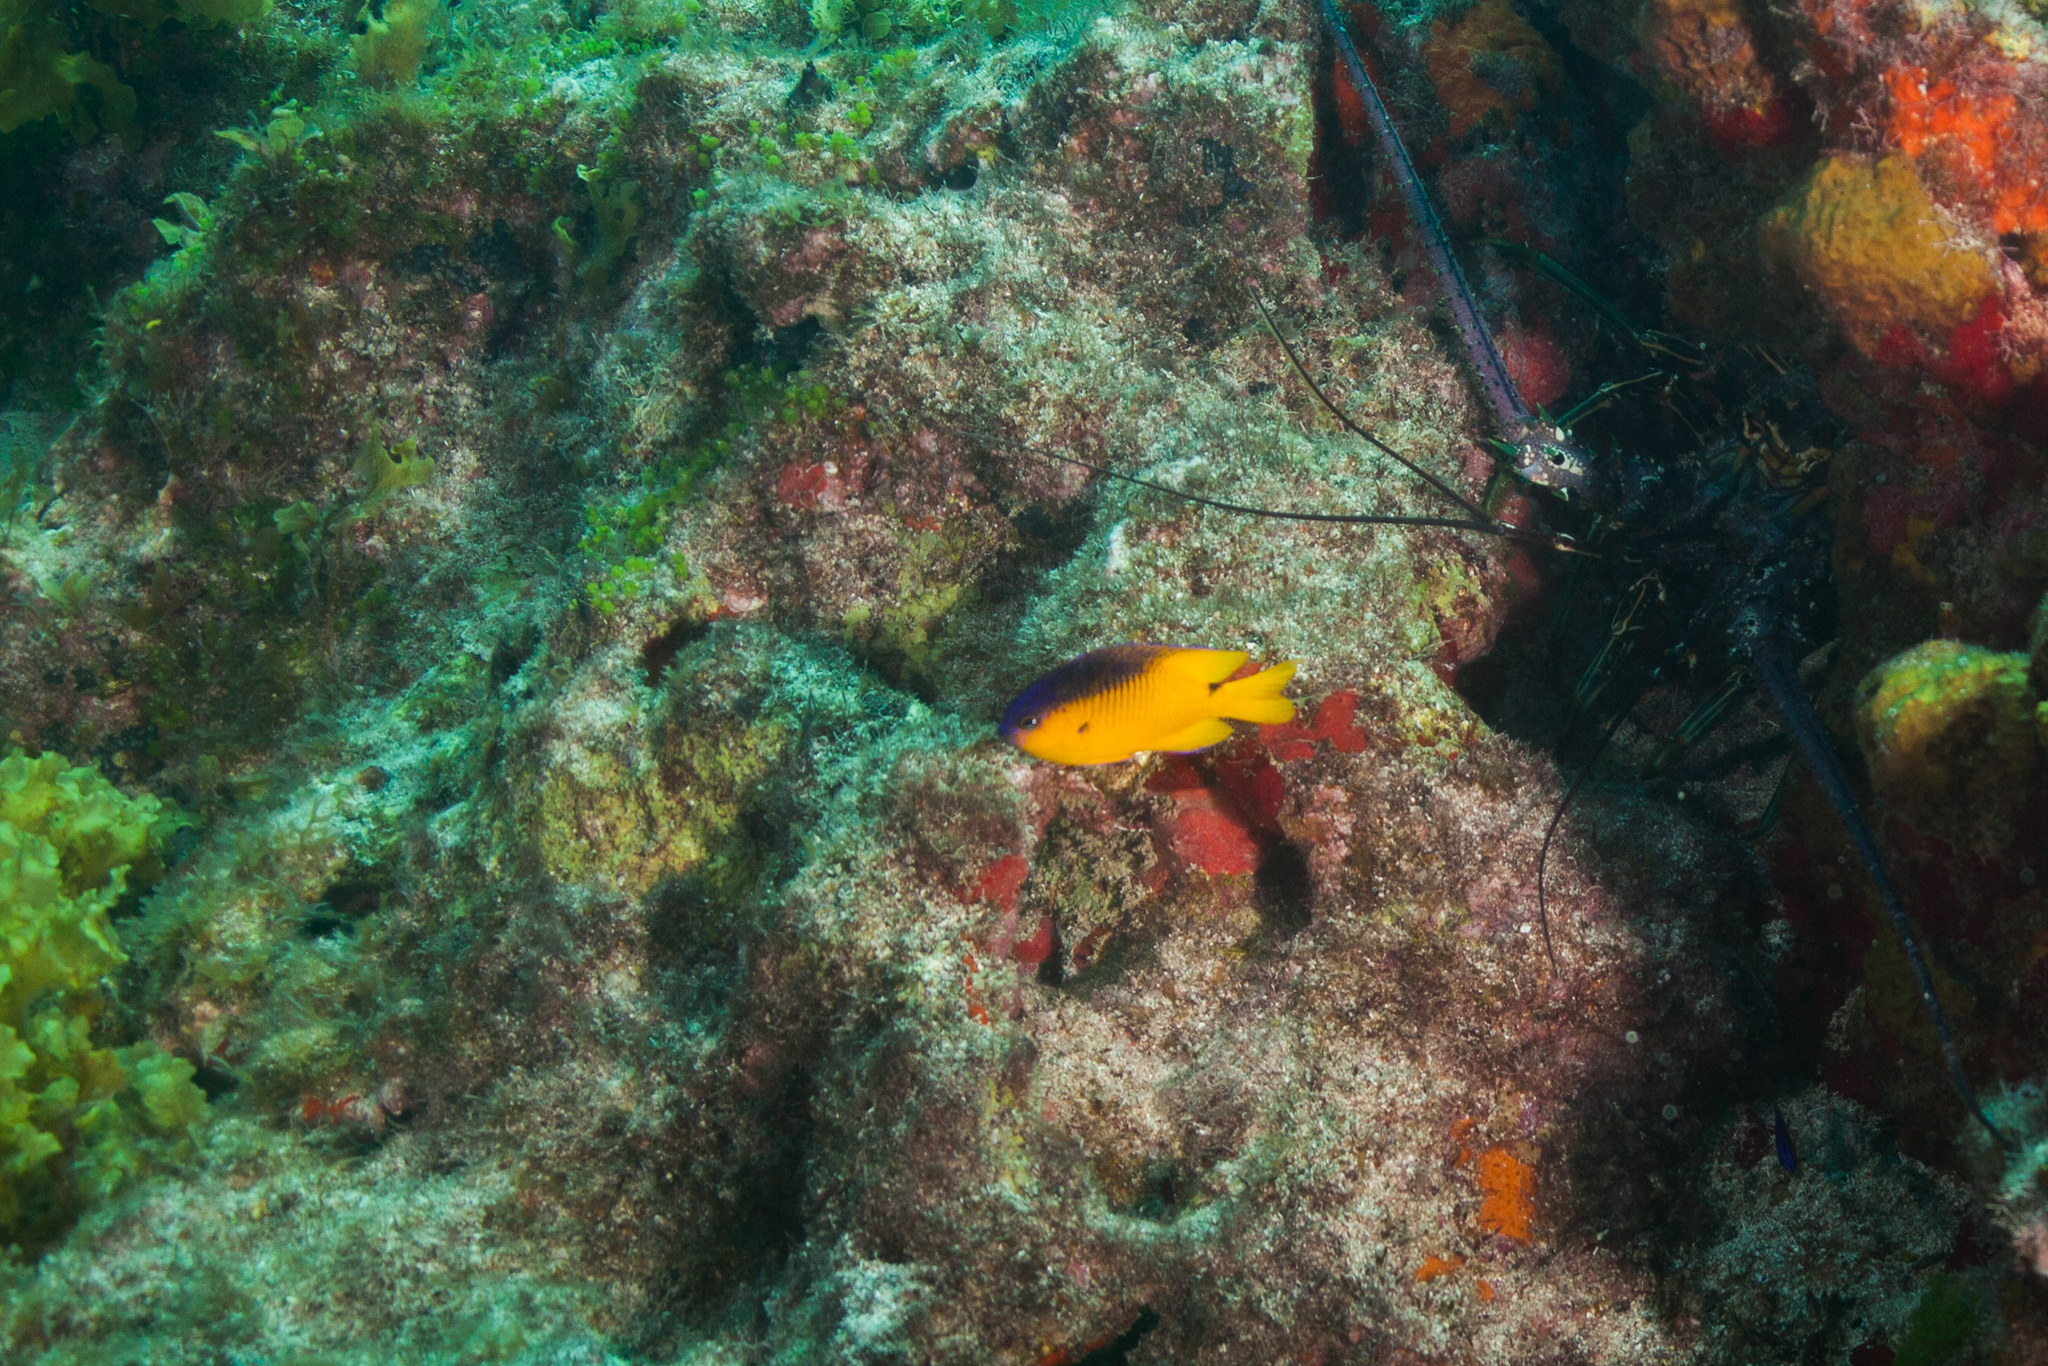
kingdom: Animalia
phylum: Chordata
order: Perciformes
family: Pomacentridae
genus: Stegastes
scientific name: Stegastes rocasensis
